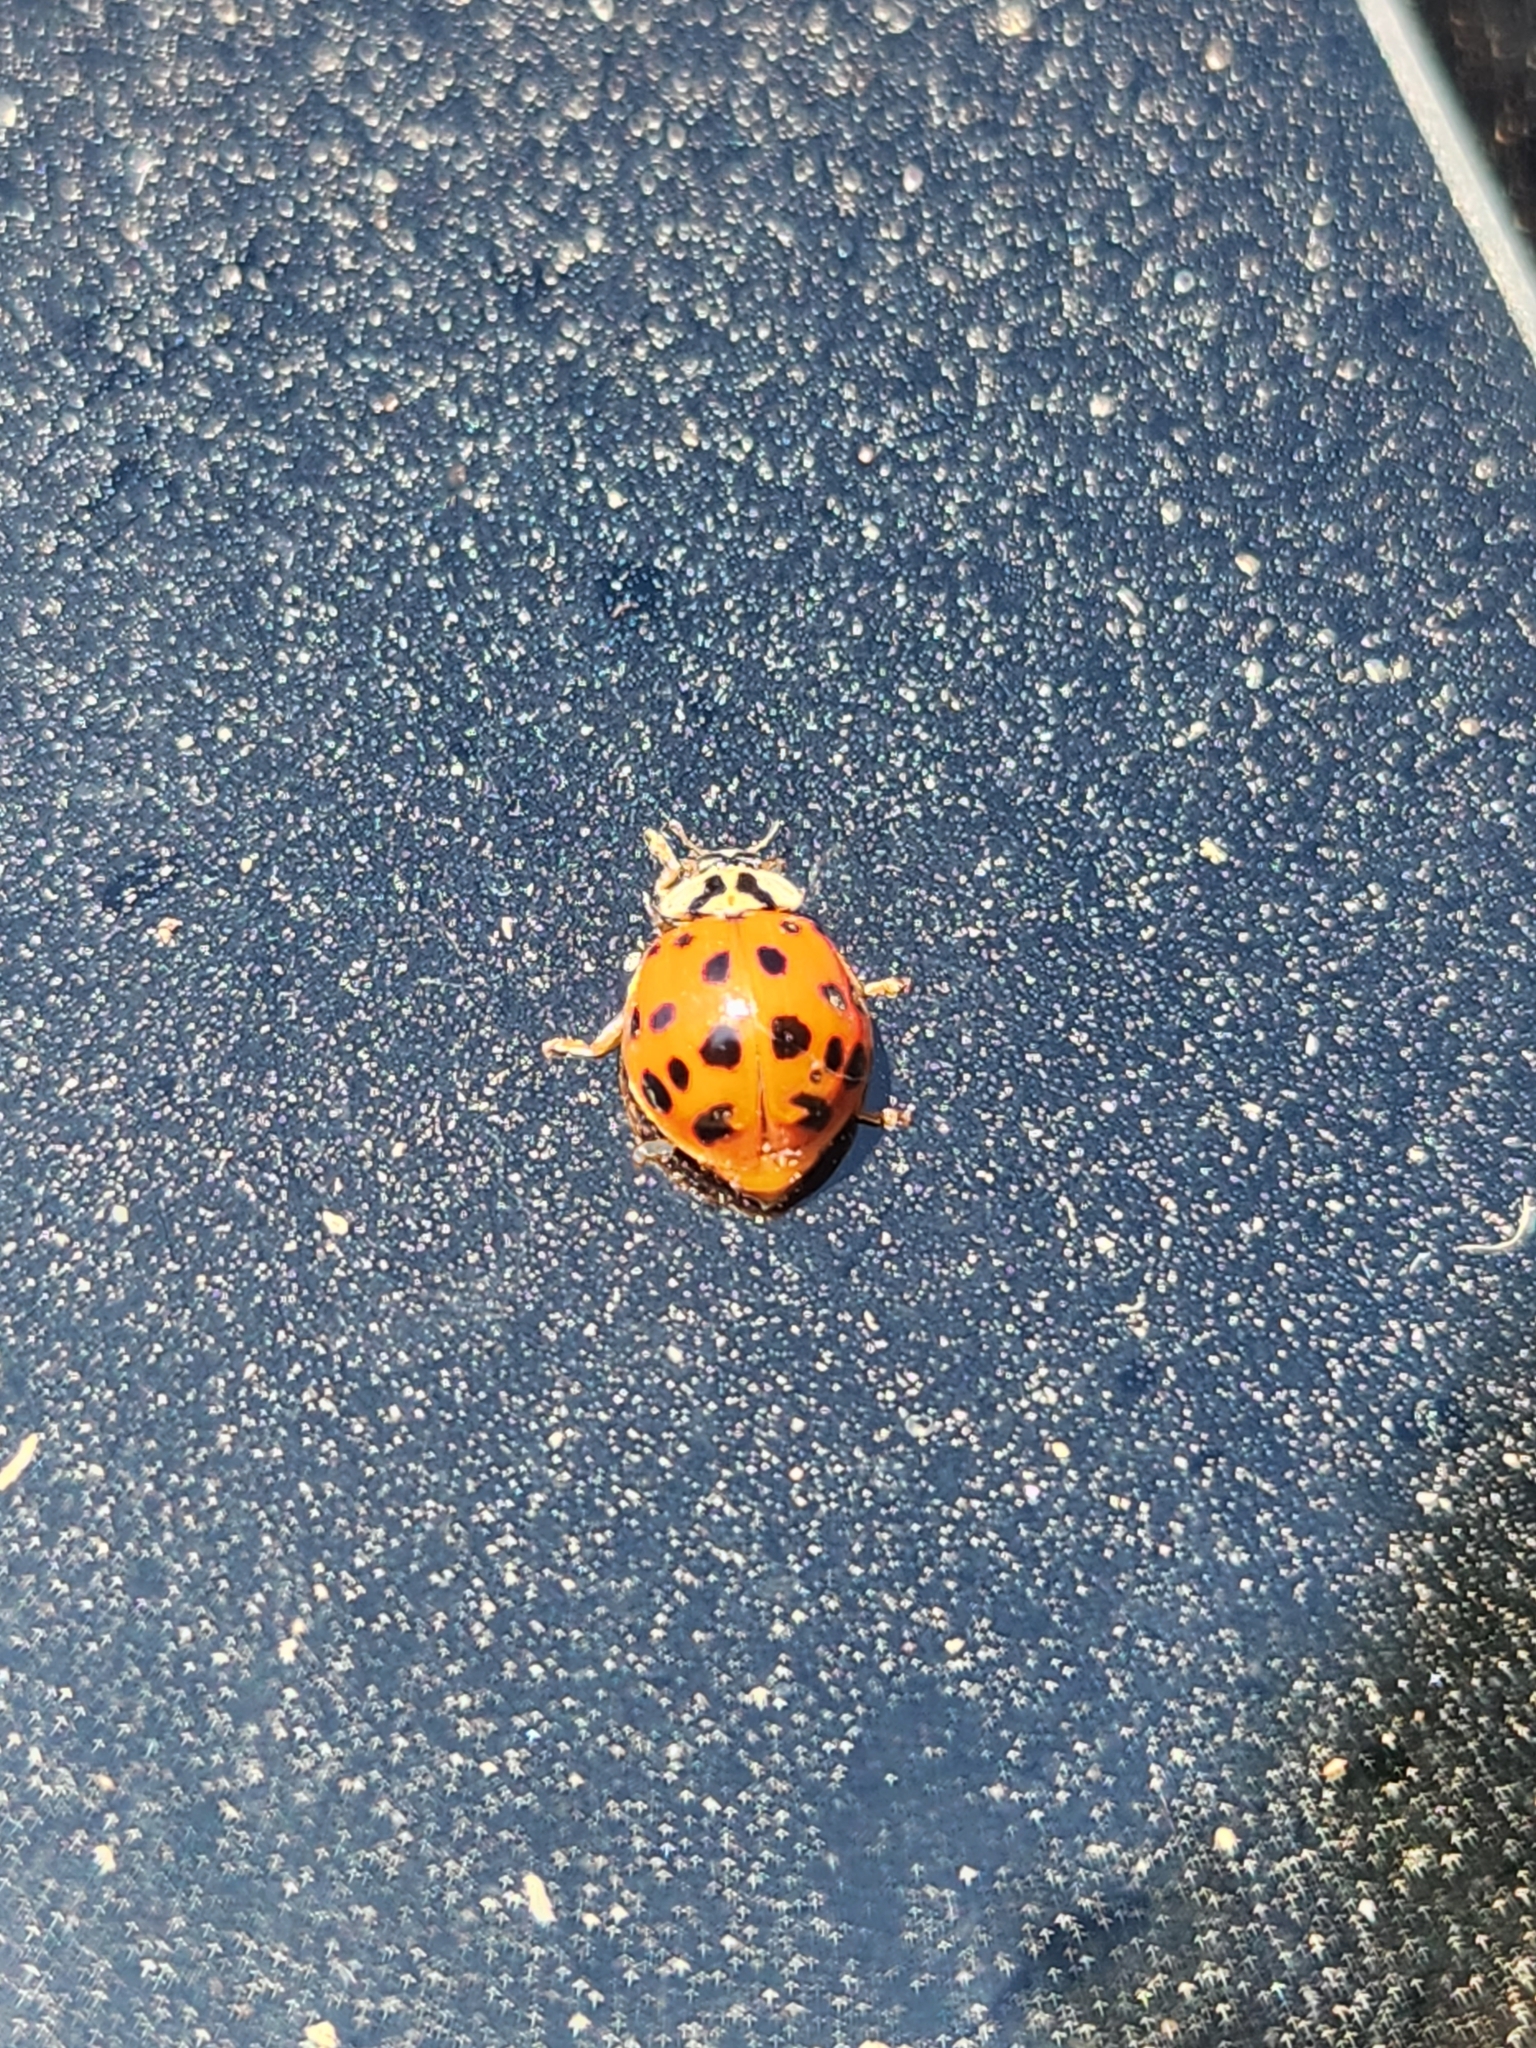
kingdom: Animalia
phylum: Arthropoda
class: Insecta
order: Coleoptera
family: Coccinellidae
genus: Harmonia
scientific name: Harmonia axyridis
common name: Harlequin ladybird
